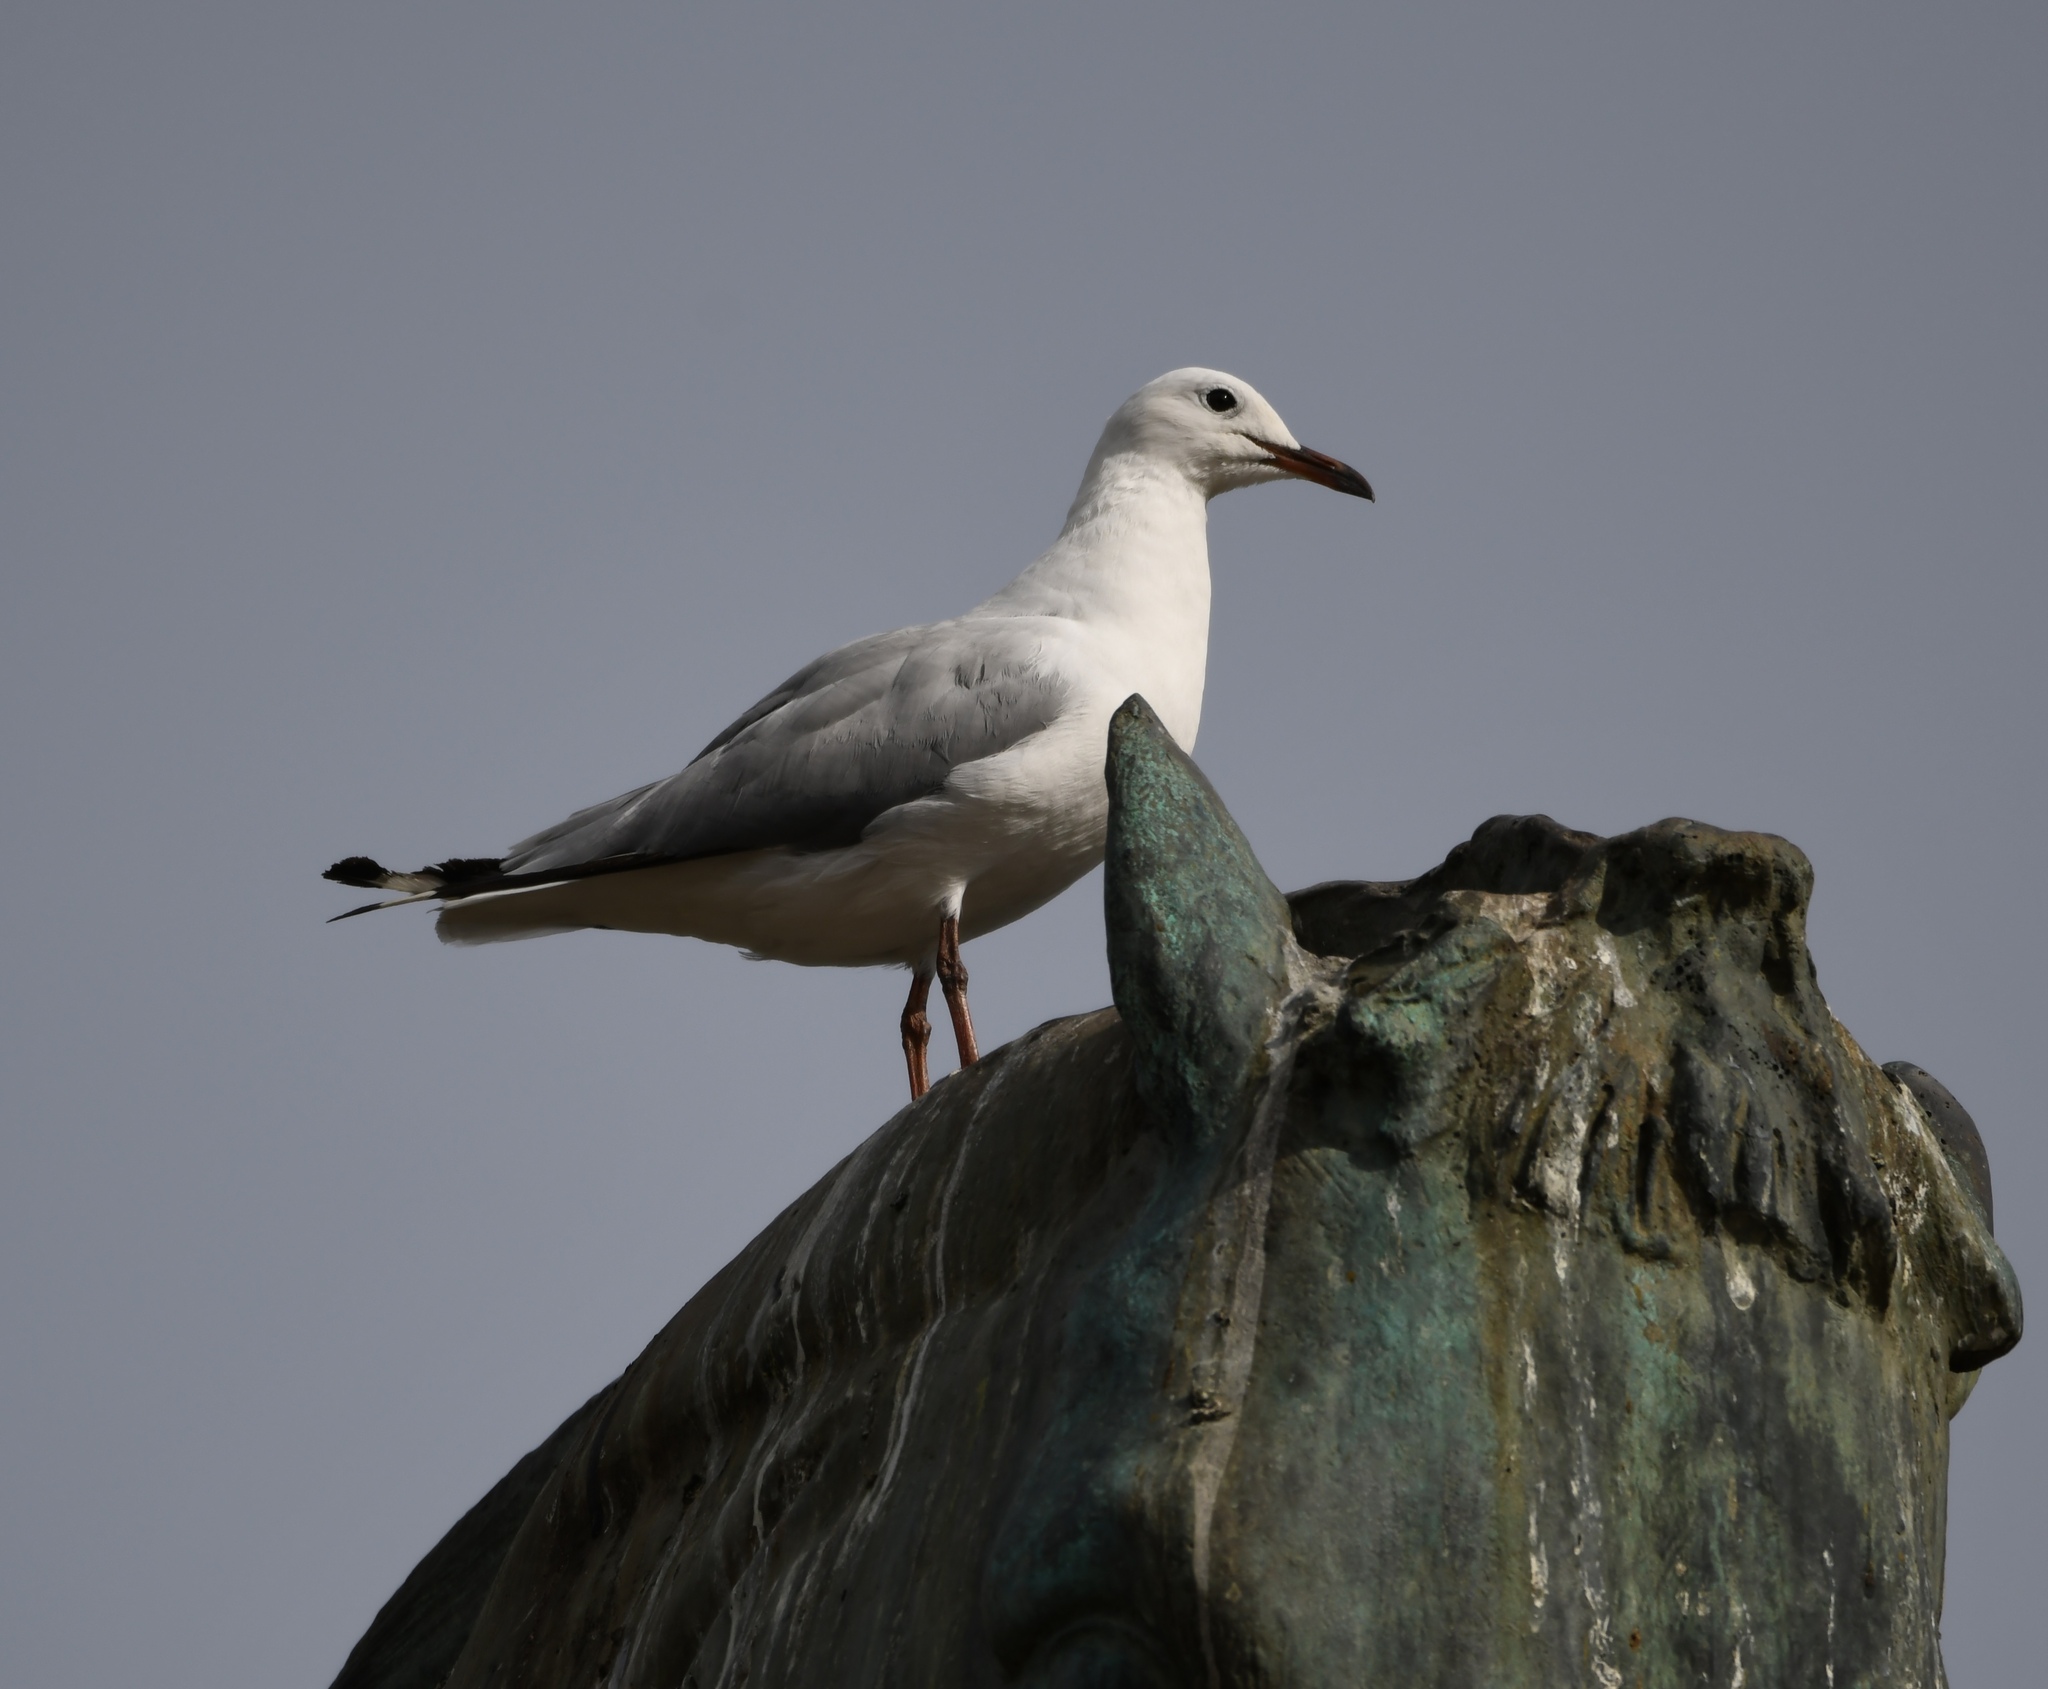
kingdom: Animalia
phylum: Chordata
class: Aves
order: Charadriiformes
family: Laridae
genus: Chroicocephalus
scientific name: Chroicocephalus hartlaubii
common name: Hartlaub's gull
